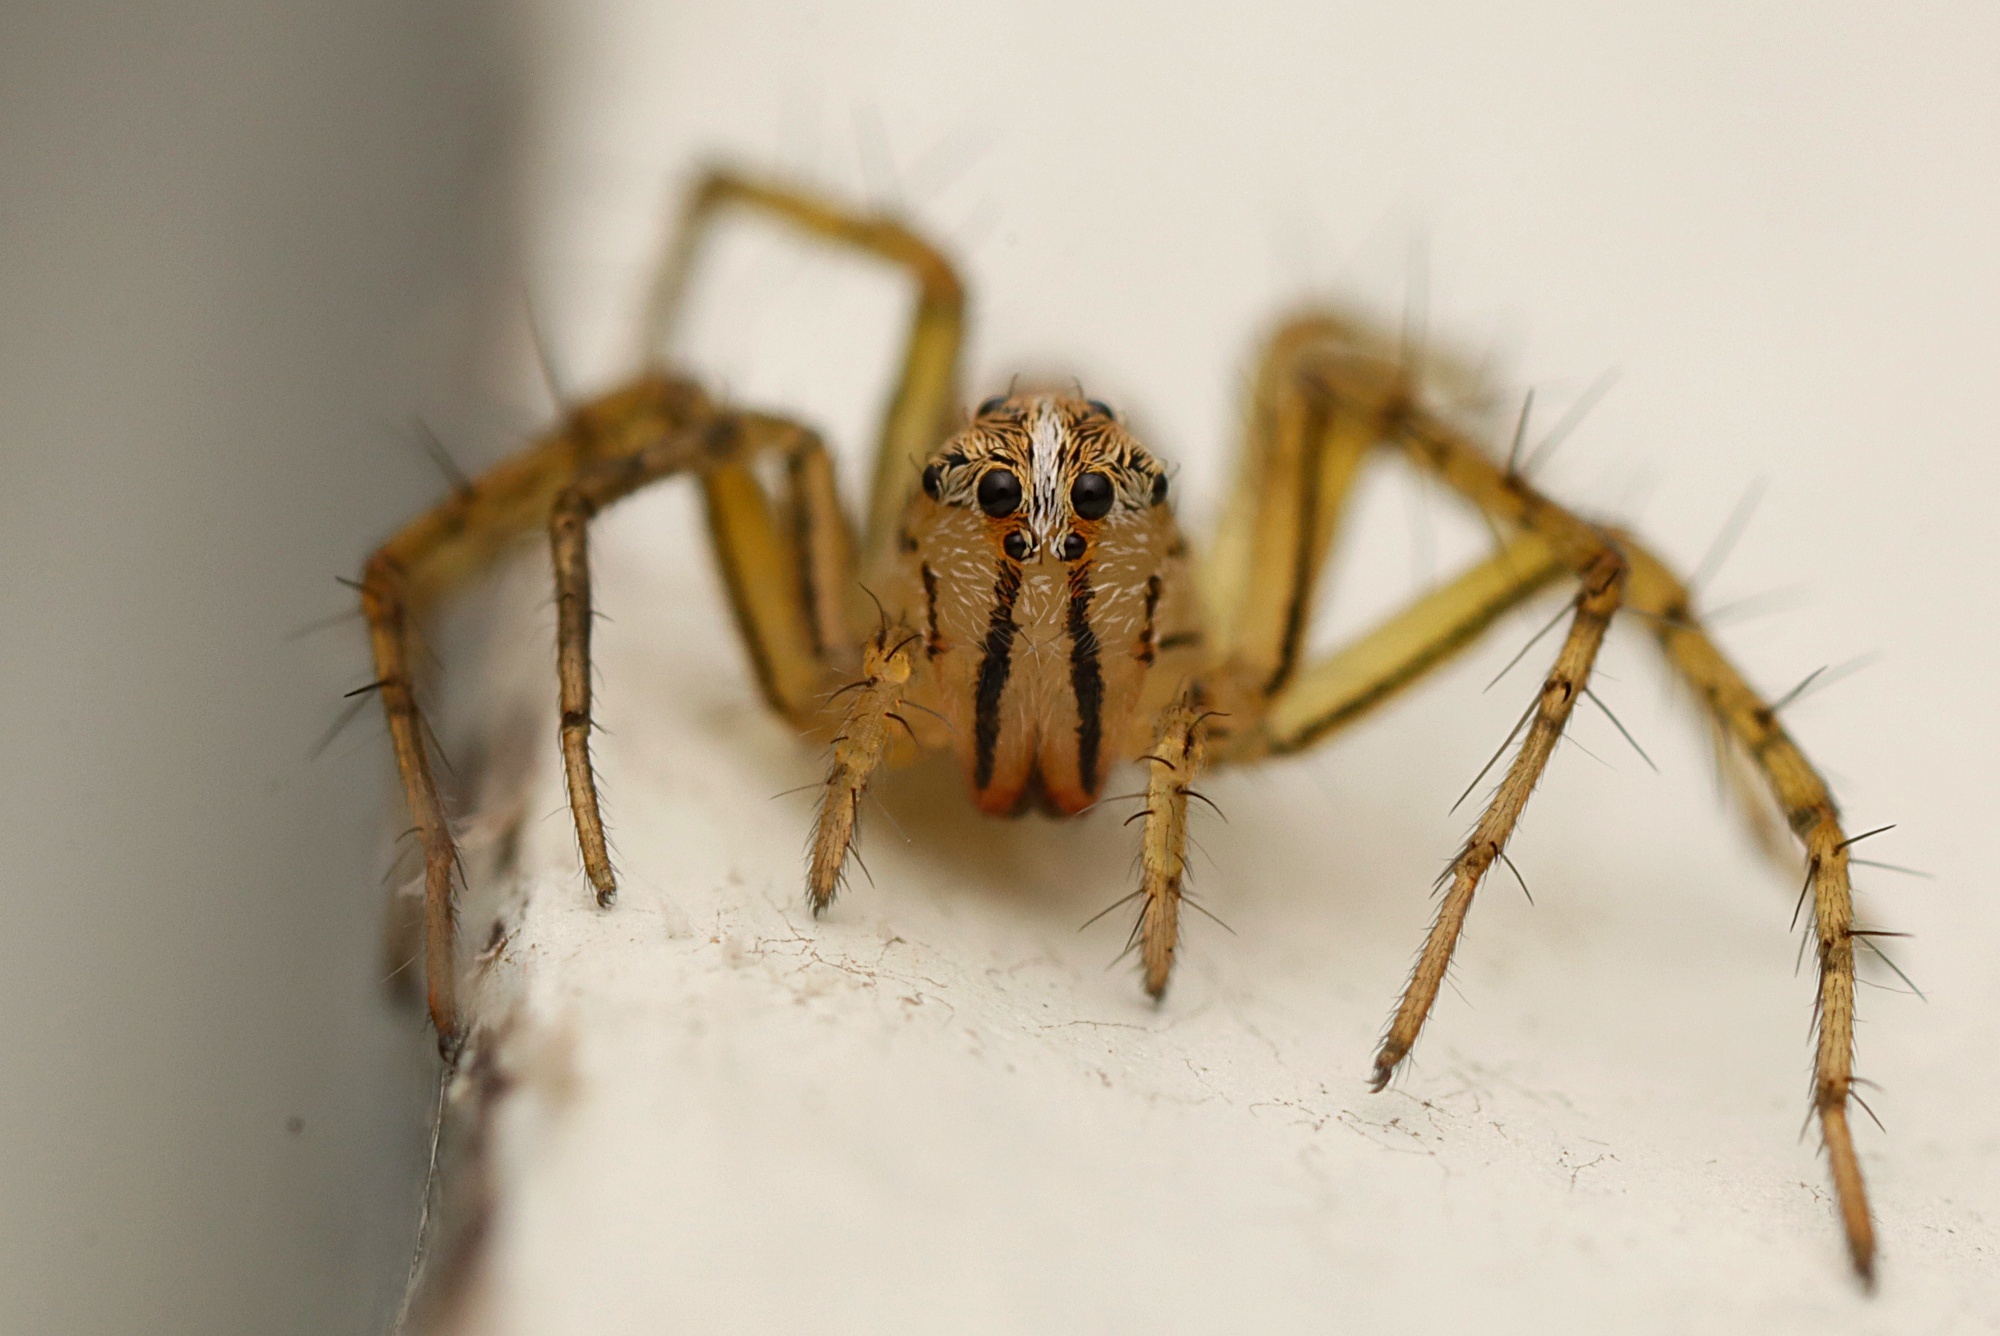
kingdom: Animalia
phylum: Arthropoda
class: Arachnida
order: Araneae
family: Oxyopidae
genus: Oxyopes
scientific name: Oxyopes gracilipes
